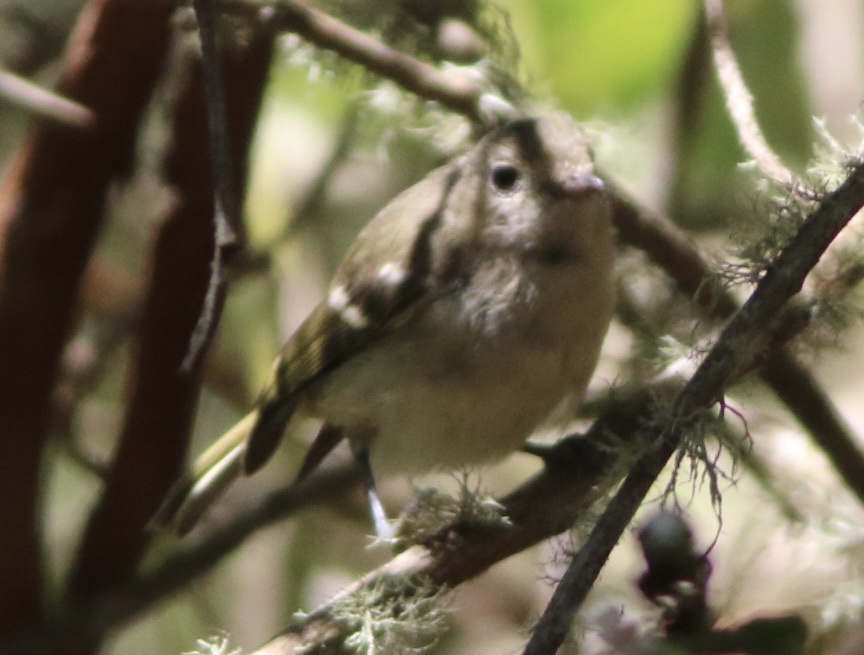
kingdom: Animalia
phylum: Chordata
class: Aves
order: Passeriformes
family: Vireonidae
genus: Vireo
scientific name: Vireo huttoni
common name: Hutton's vireo
